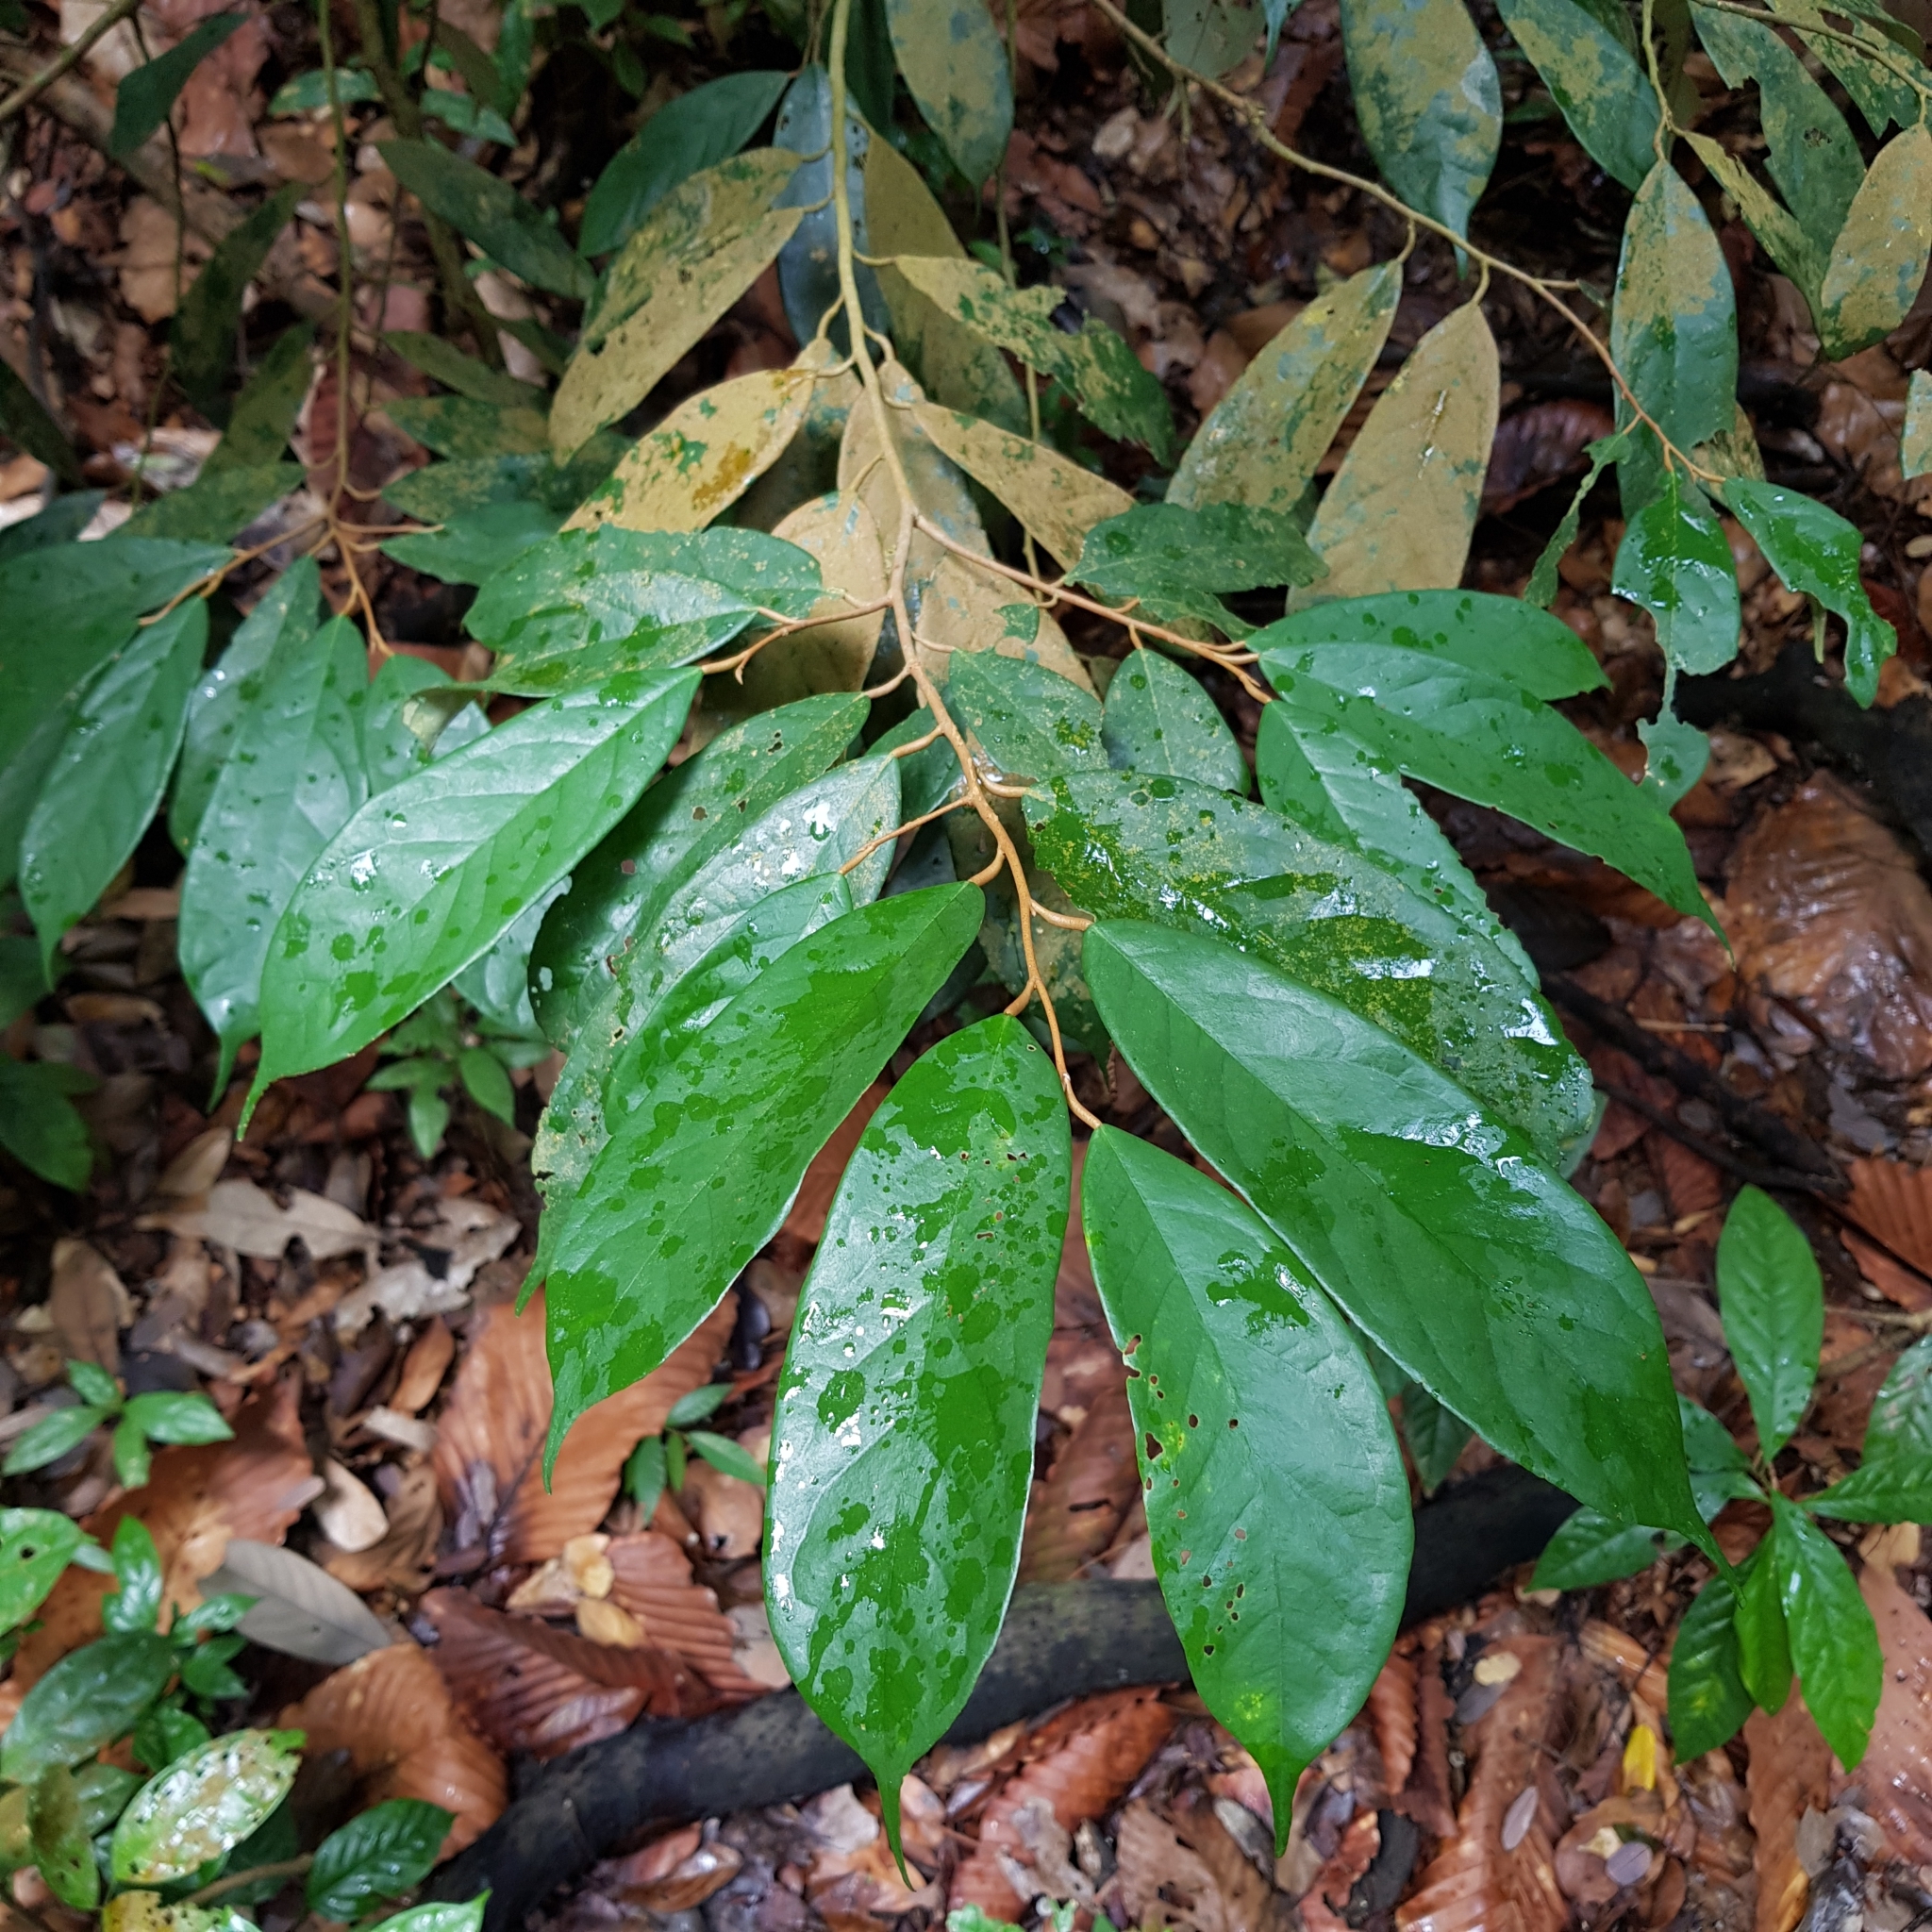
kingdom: Plantae
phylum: Tracheophyta
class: Magnoliopsida
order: Malvales
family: Malvaceae
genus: Boschia
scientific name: Boschia griffithii
